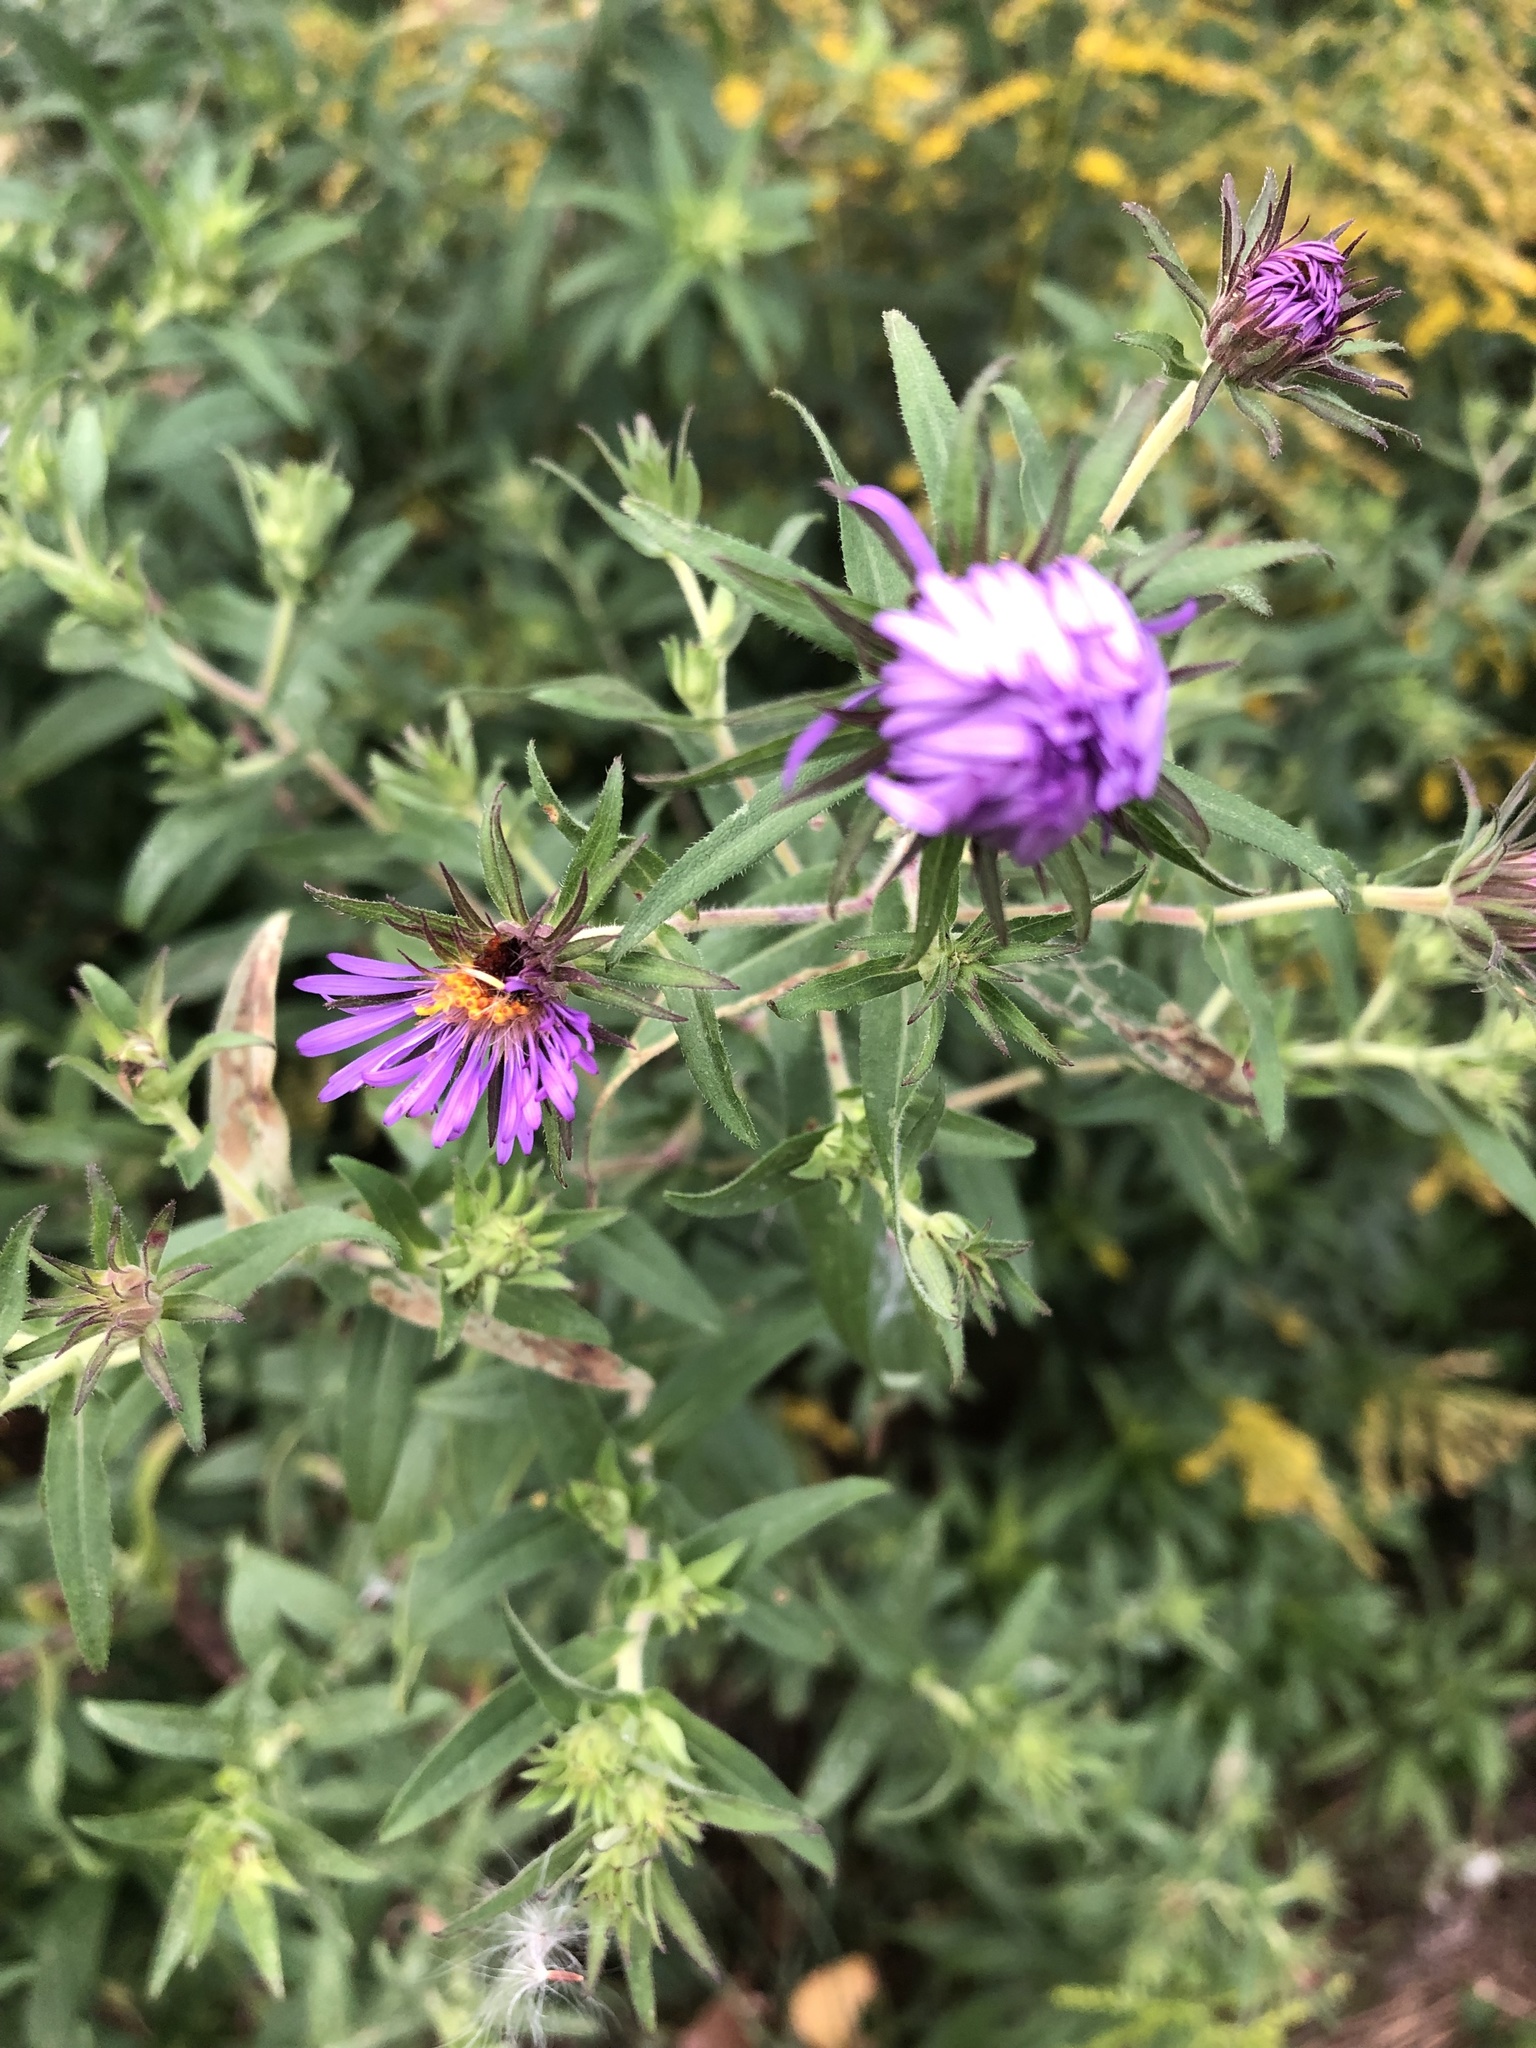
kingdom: Plantae
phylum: Tracheophyta
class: Magnoliopsida
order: Asterales
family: Asteraceae
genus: Symphyotrichum
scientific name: Symphyotrichum novae-angliae
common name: Michaelmas daisy
